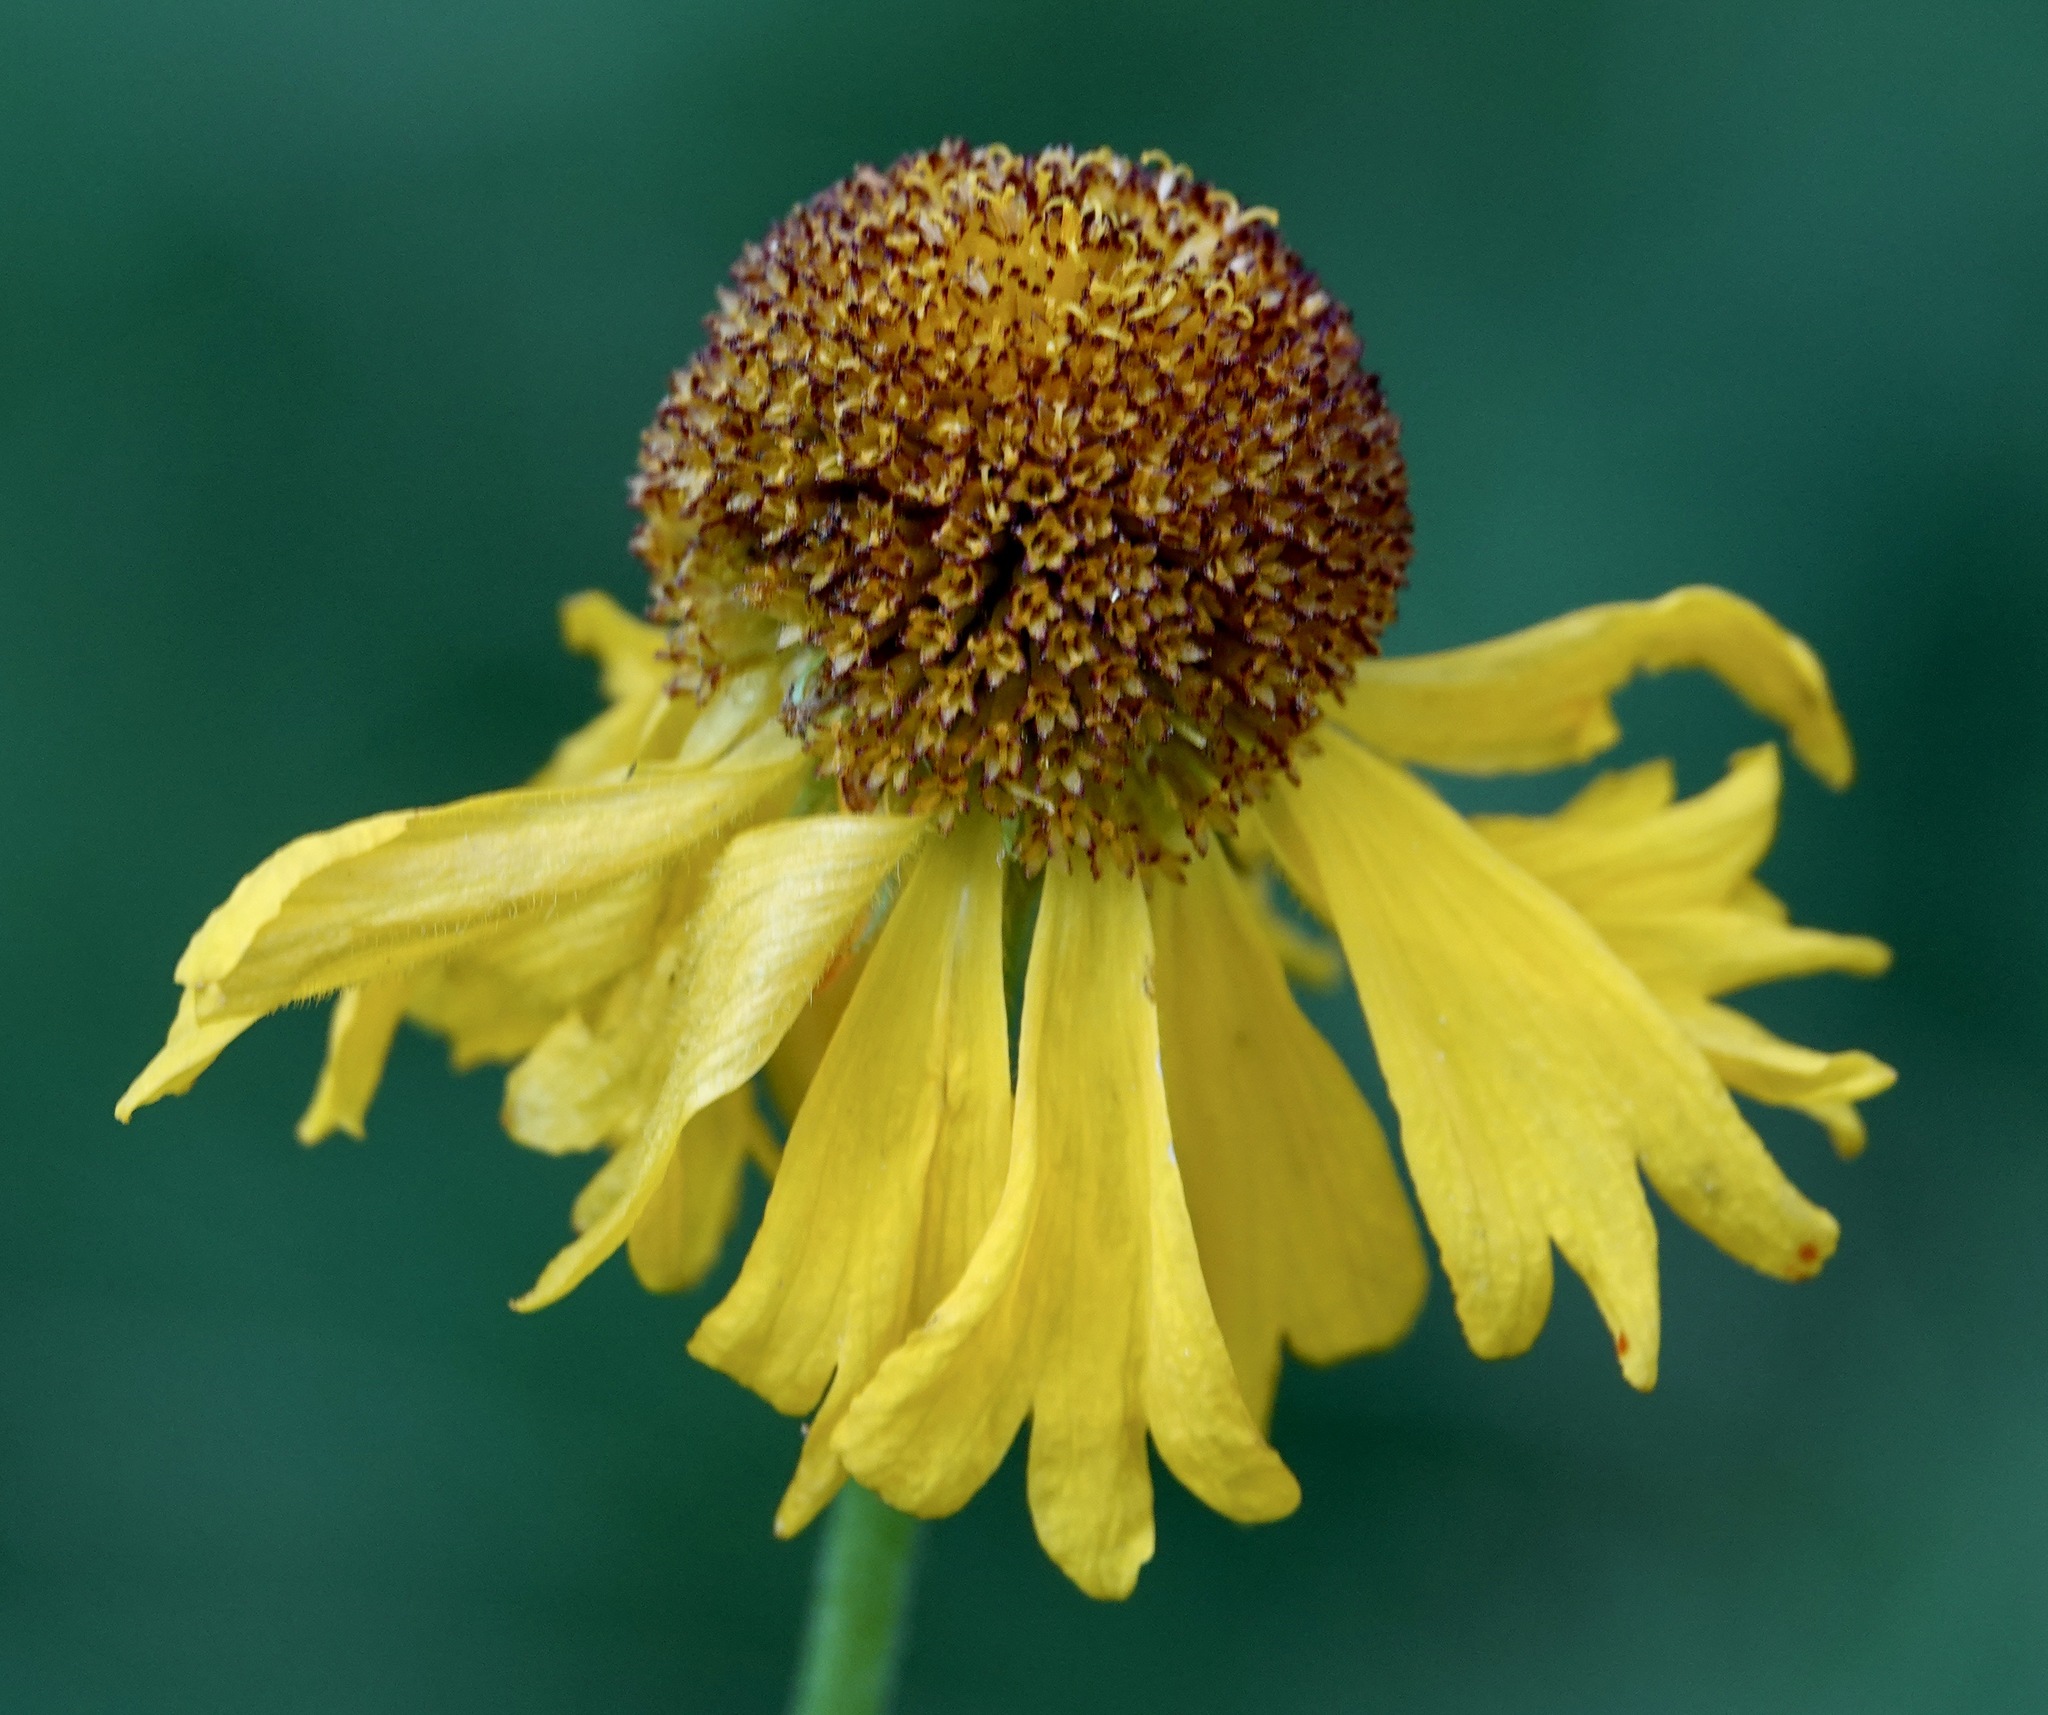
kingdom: Plantae
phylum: Tracheophyta
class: Magnoliopsida
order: Asterales
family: Asteraceae
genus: Helenium
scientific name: Helenium bigelovii
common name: Bigelow's sneezeweed
